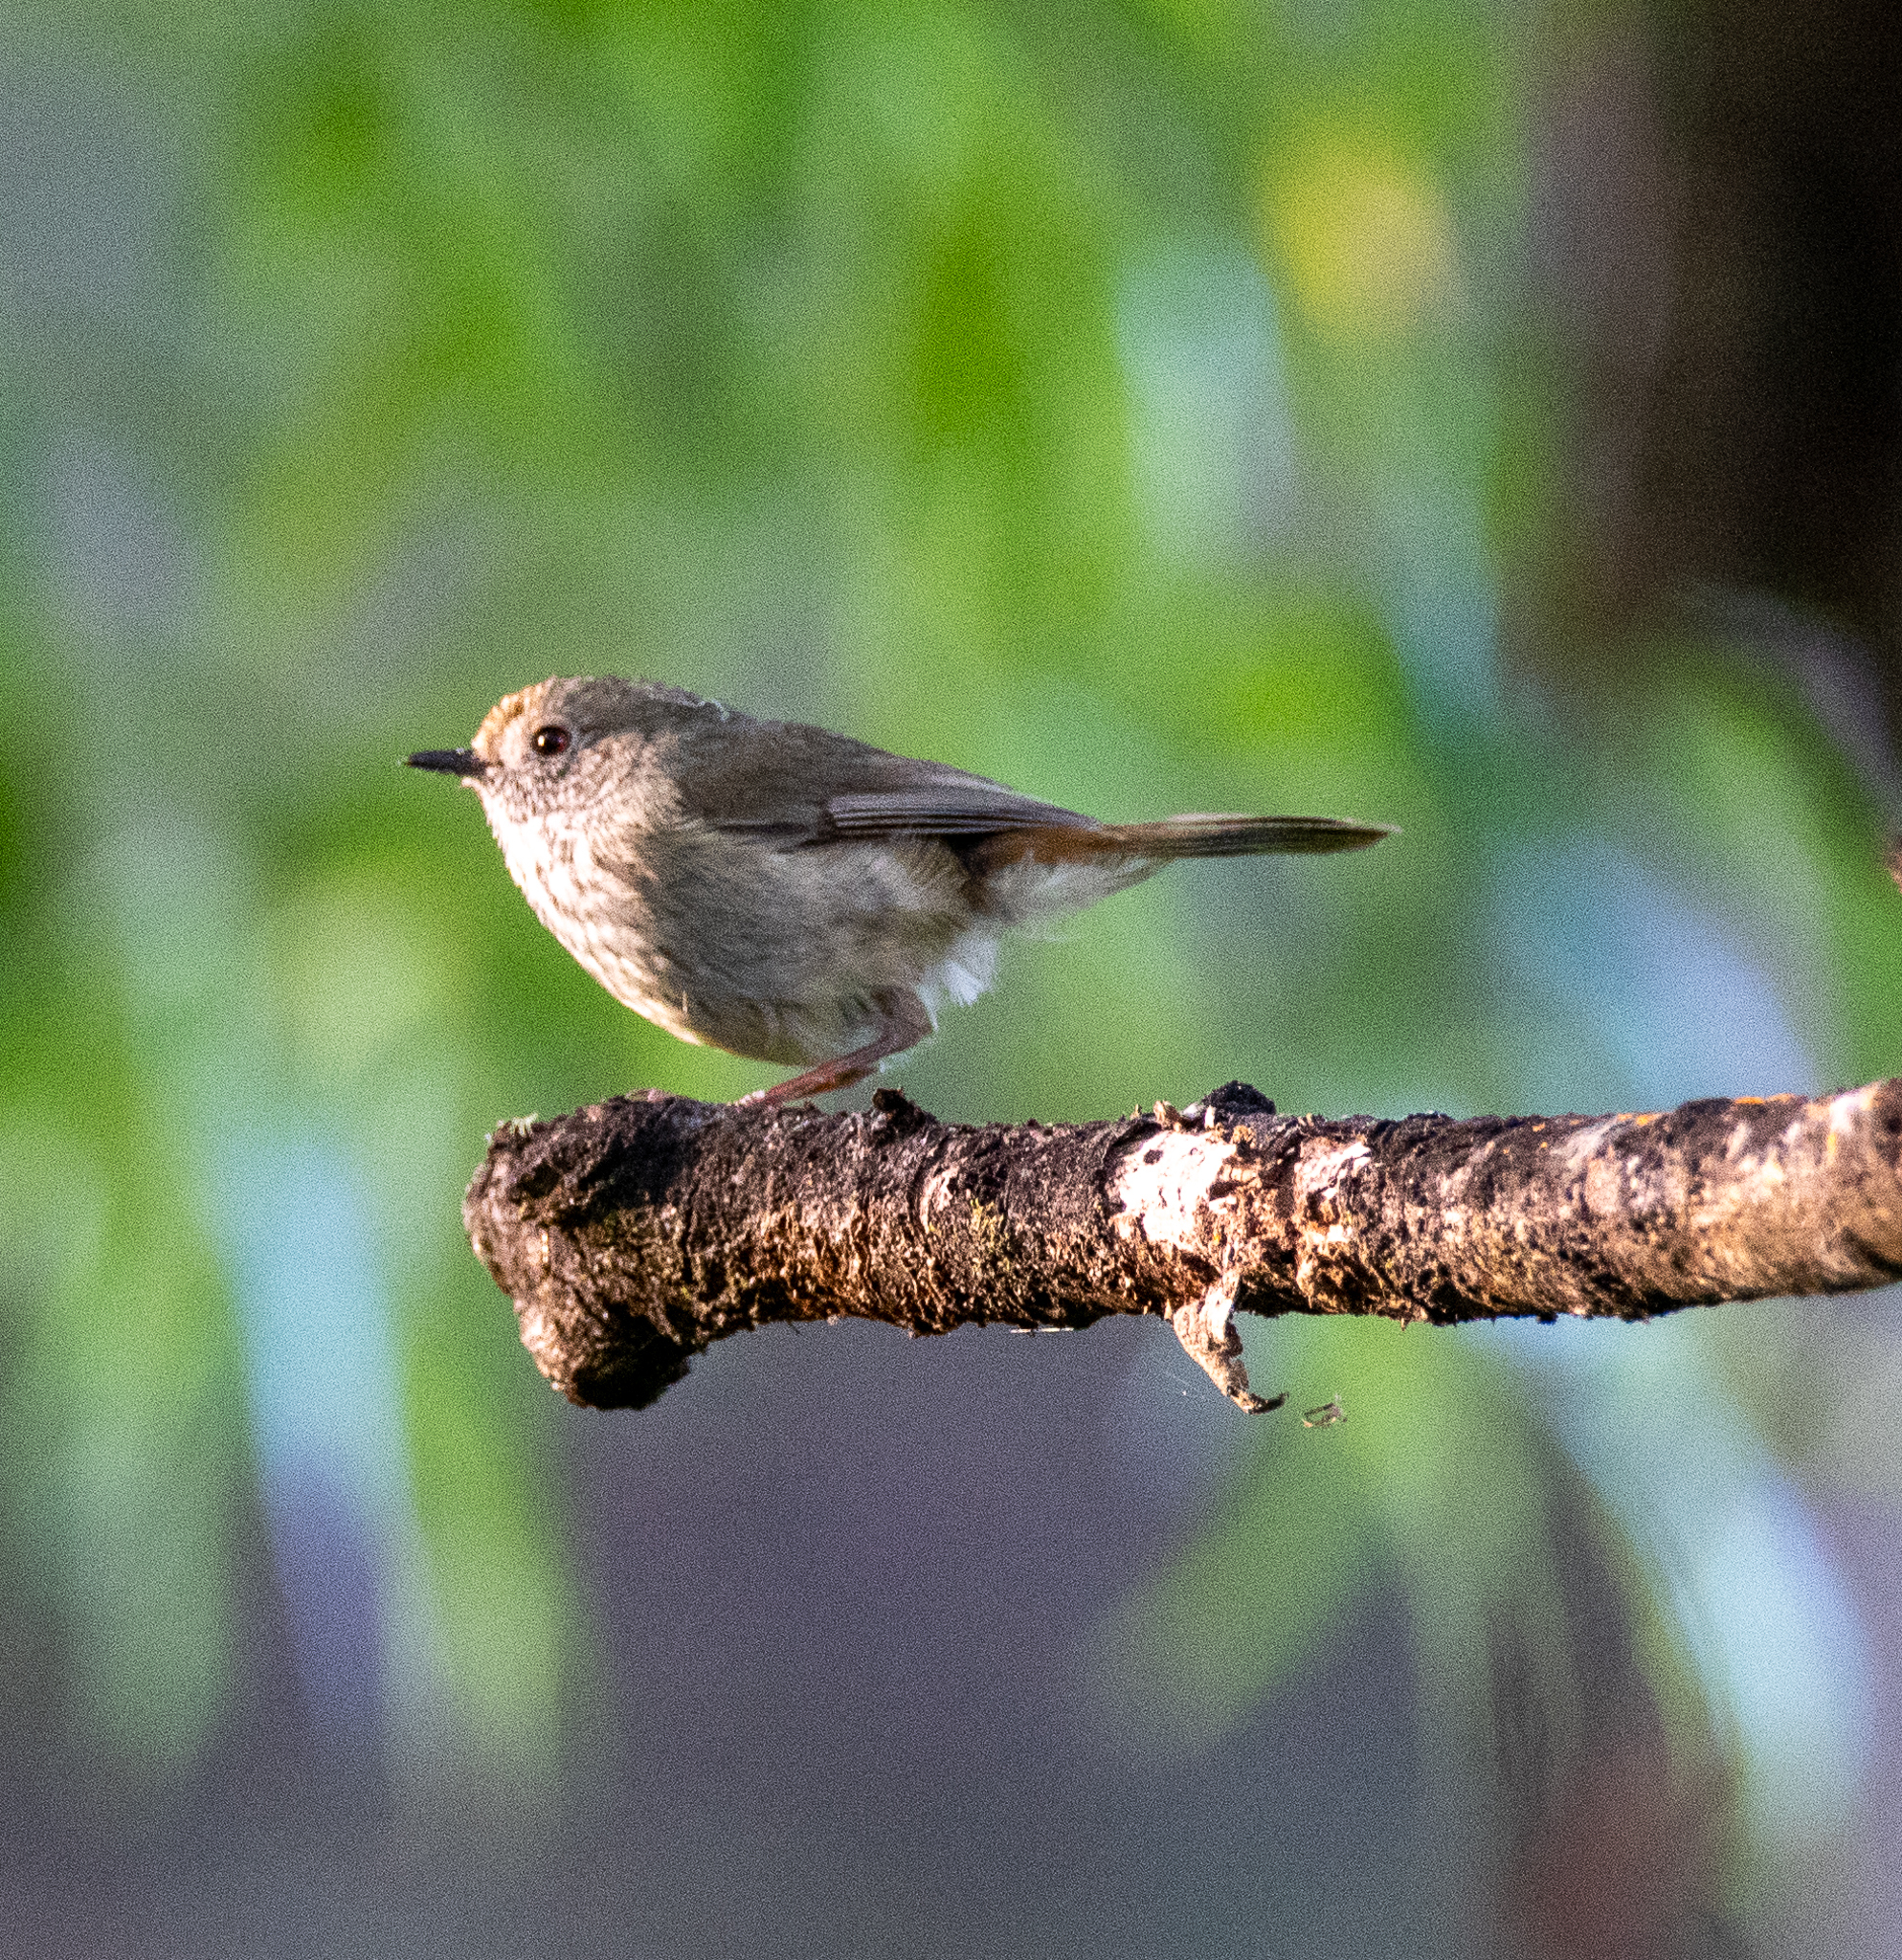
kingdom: Animalia
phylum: Chordata
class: Aves
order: Passeriformes
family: Acanthizidae
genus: Acanthiza
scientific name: Acanthiza pusilla
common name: Brown thornbill
